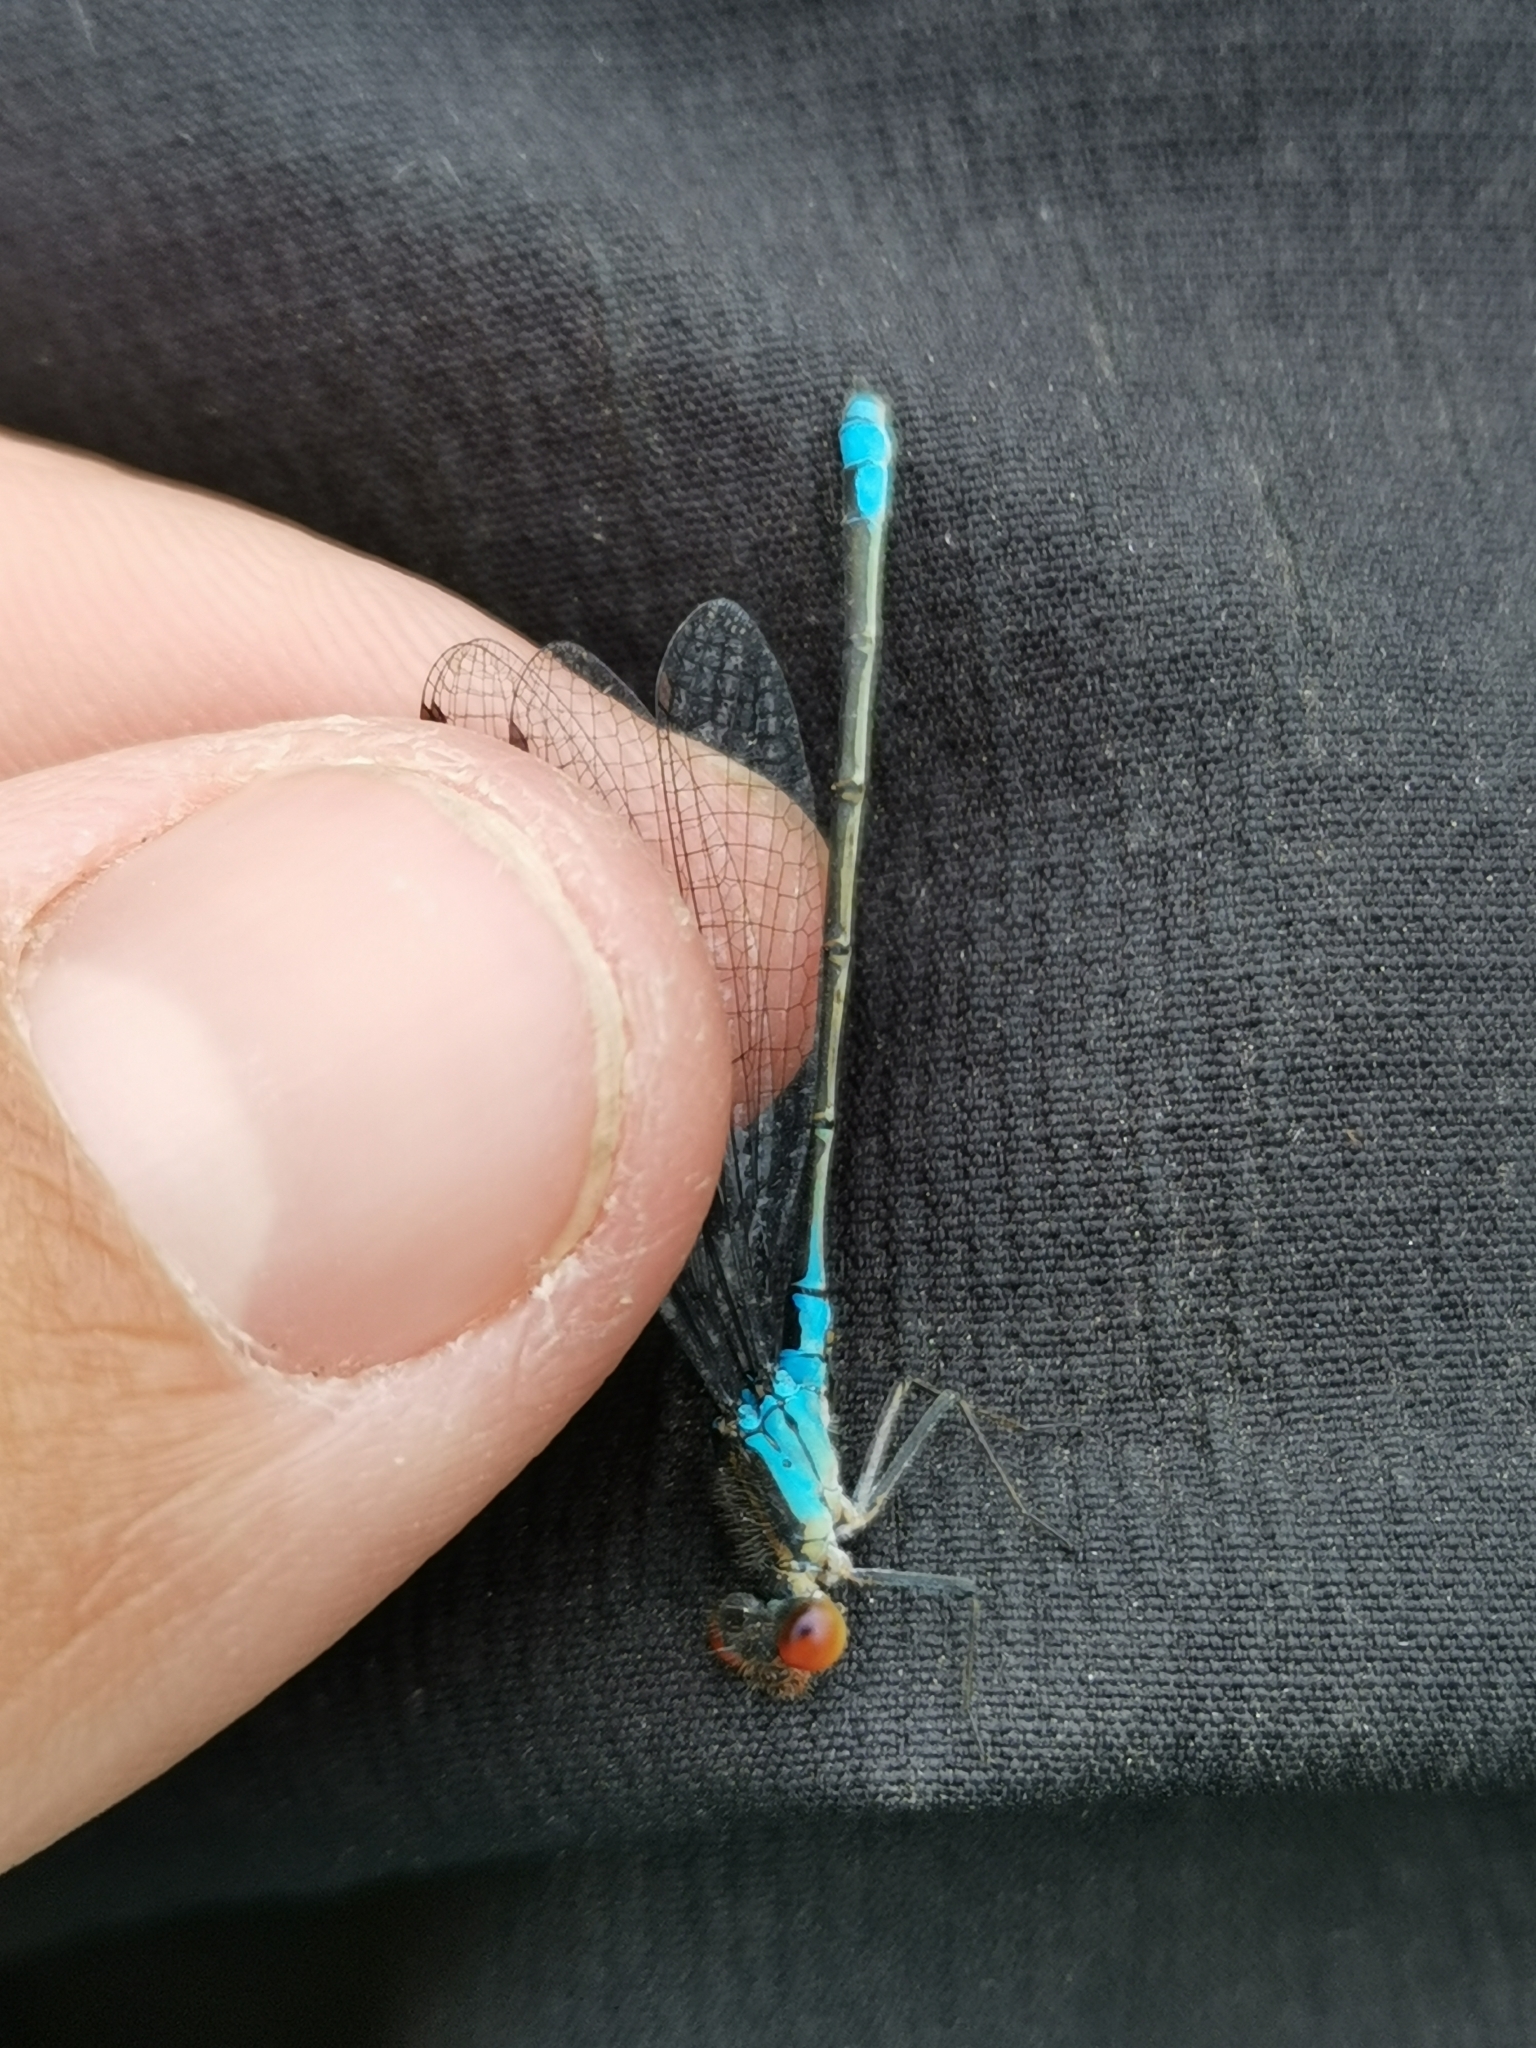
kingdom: Animalia
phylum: Arthropoda
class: Insecta
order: Odonata
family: Coenagrionidae
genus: Erythromma
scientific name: Erythromma viridulum
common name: Small red-eyed damselfly
